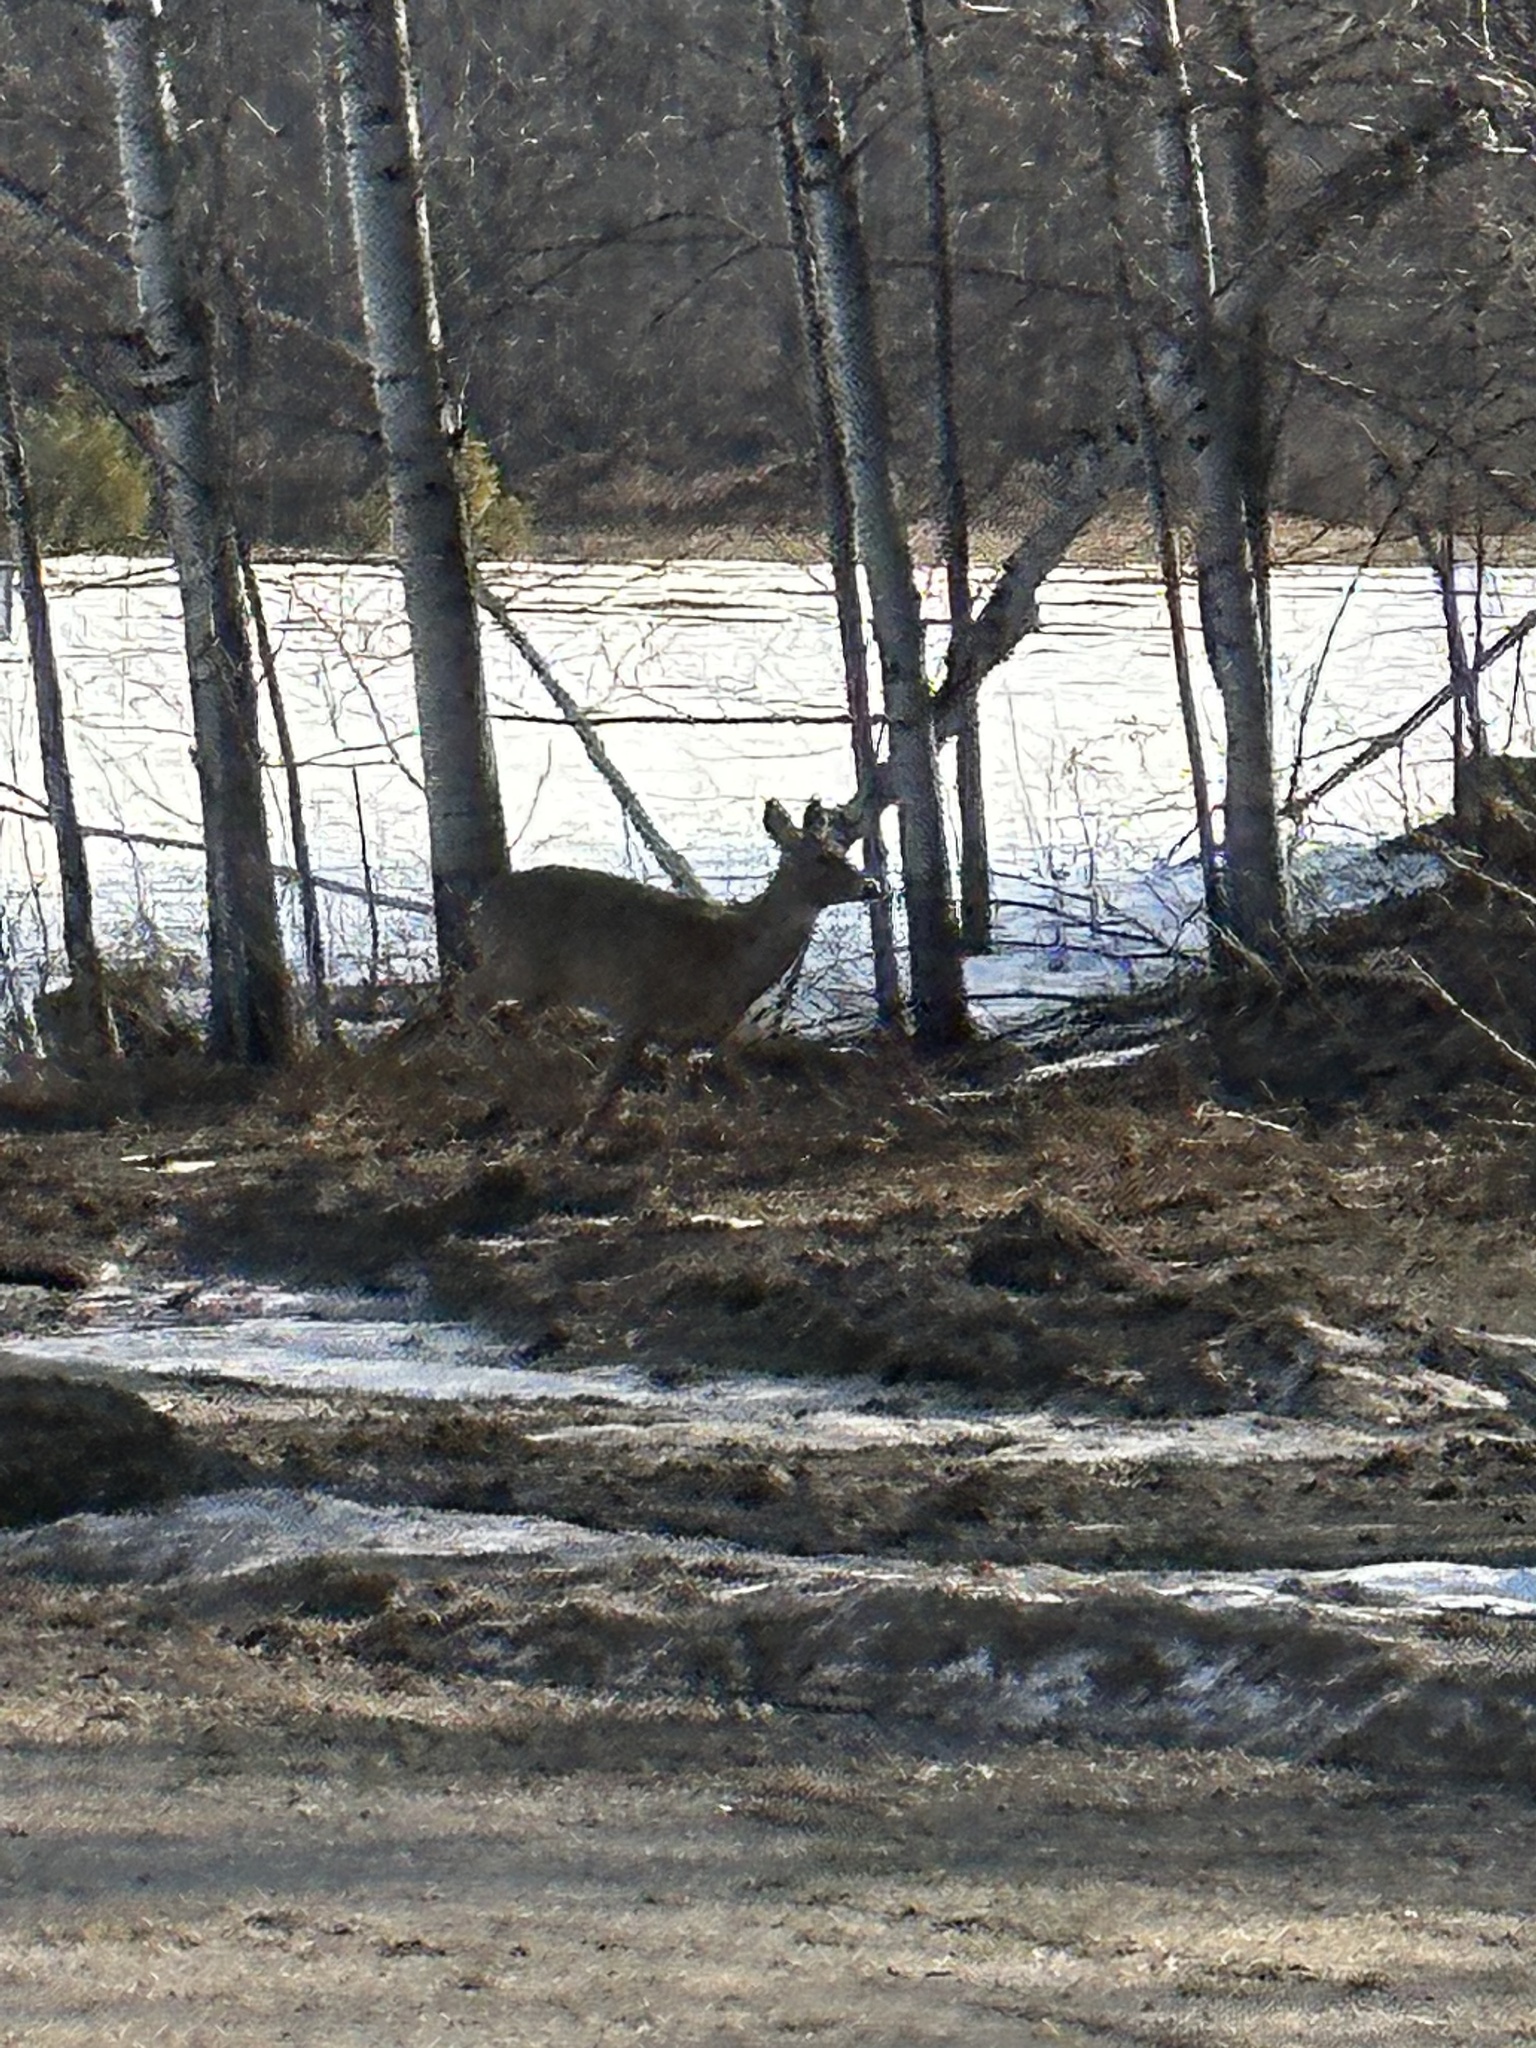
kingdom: Animalia
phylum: Chordata
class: Mammalia
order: Artiodactyla
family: Cervidae
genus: Odocoileus
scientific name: Odocoileus virginianus
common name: White-tailed deer
